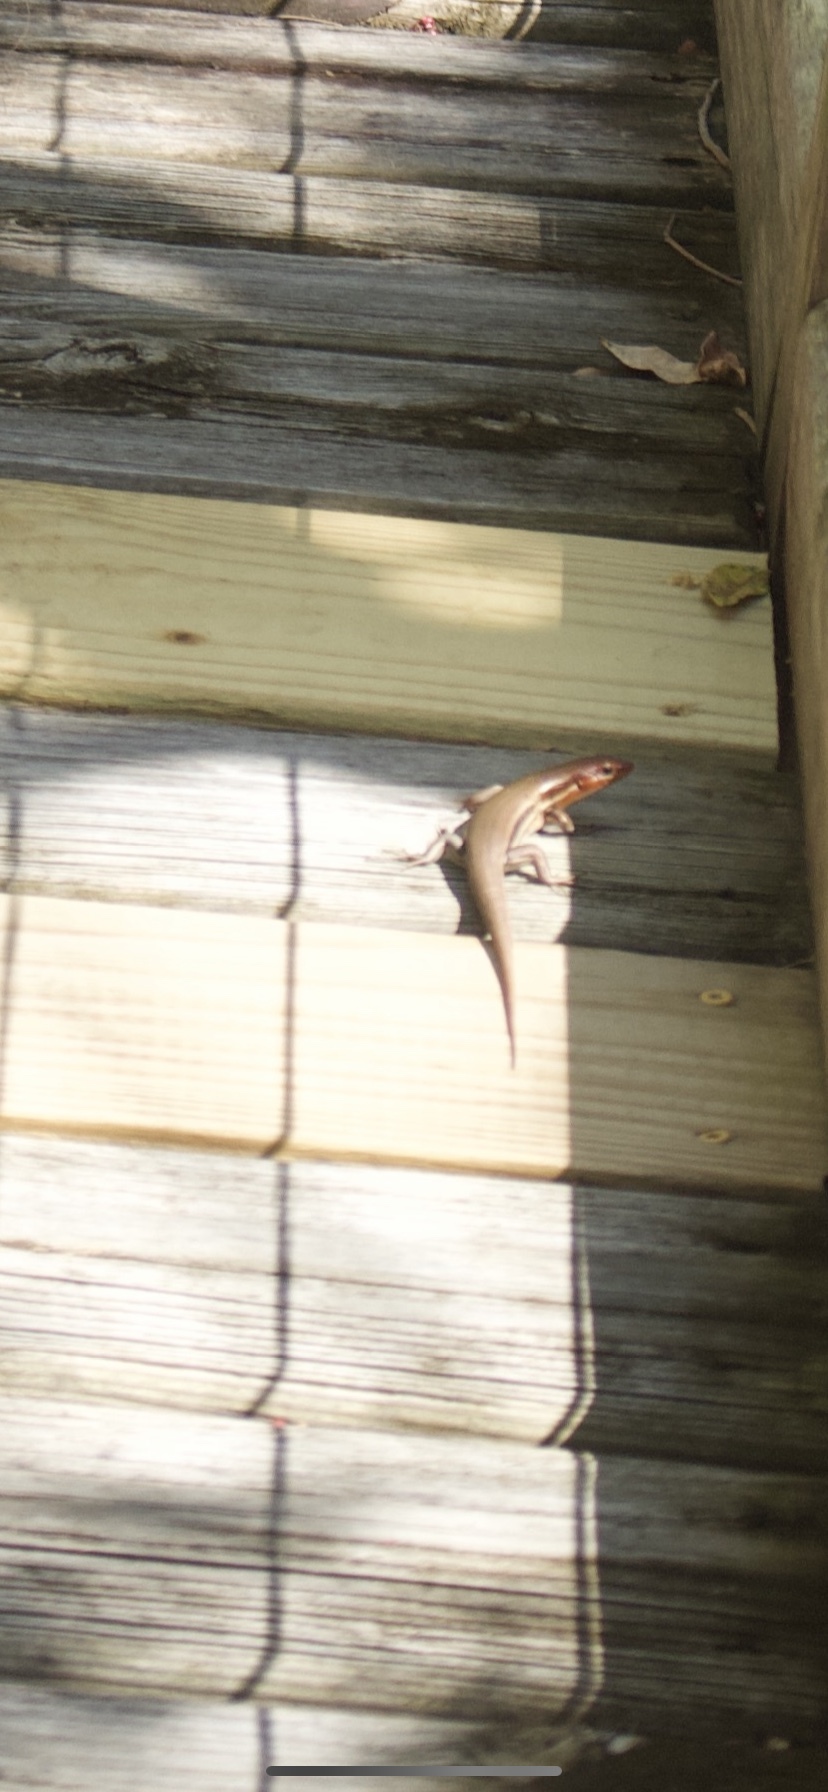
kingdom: Animalia
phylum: Chordata
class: Squamata
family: Scincidae
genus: Plestiodon
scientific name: Plestiodon inexpectatus
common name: Southeastern five-lined skink
